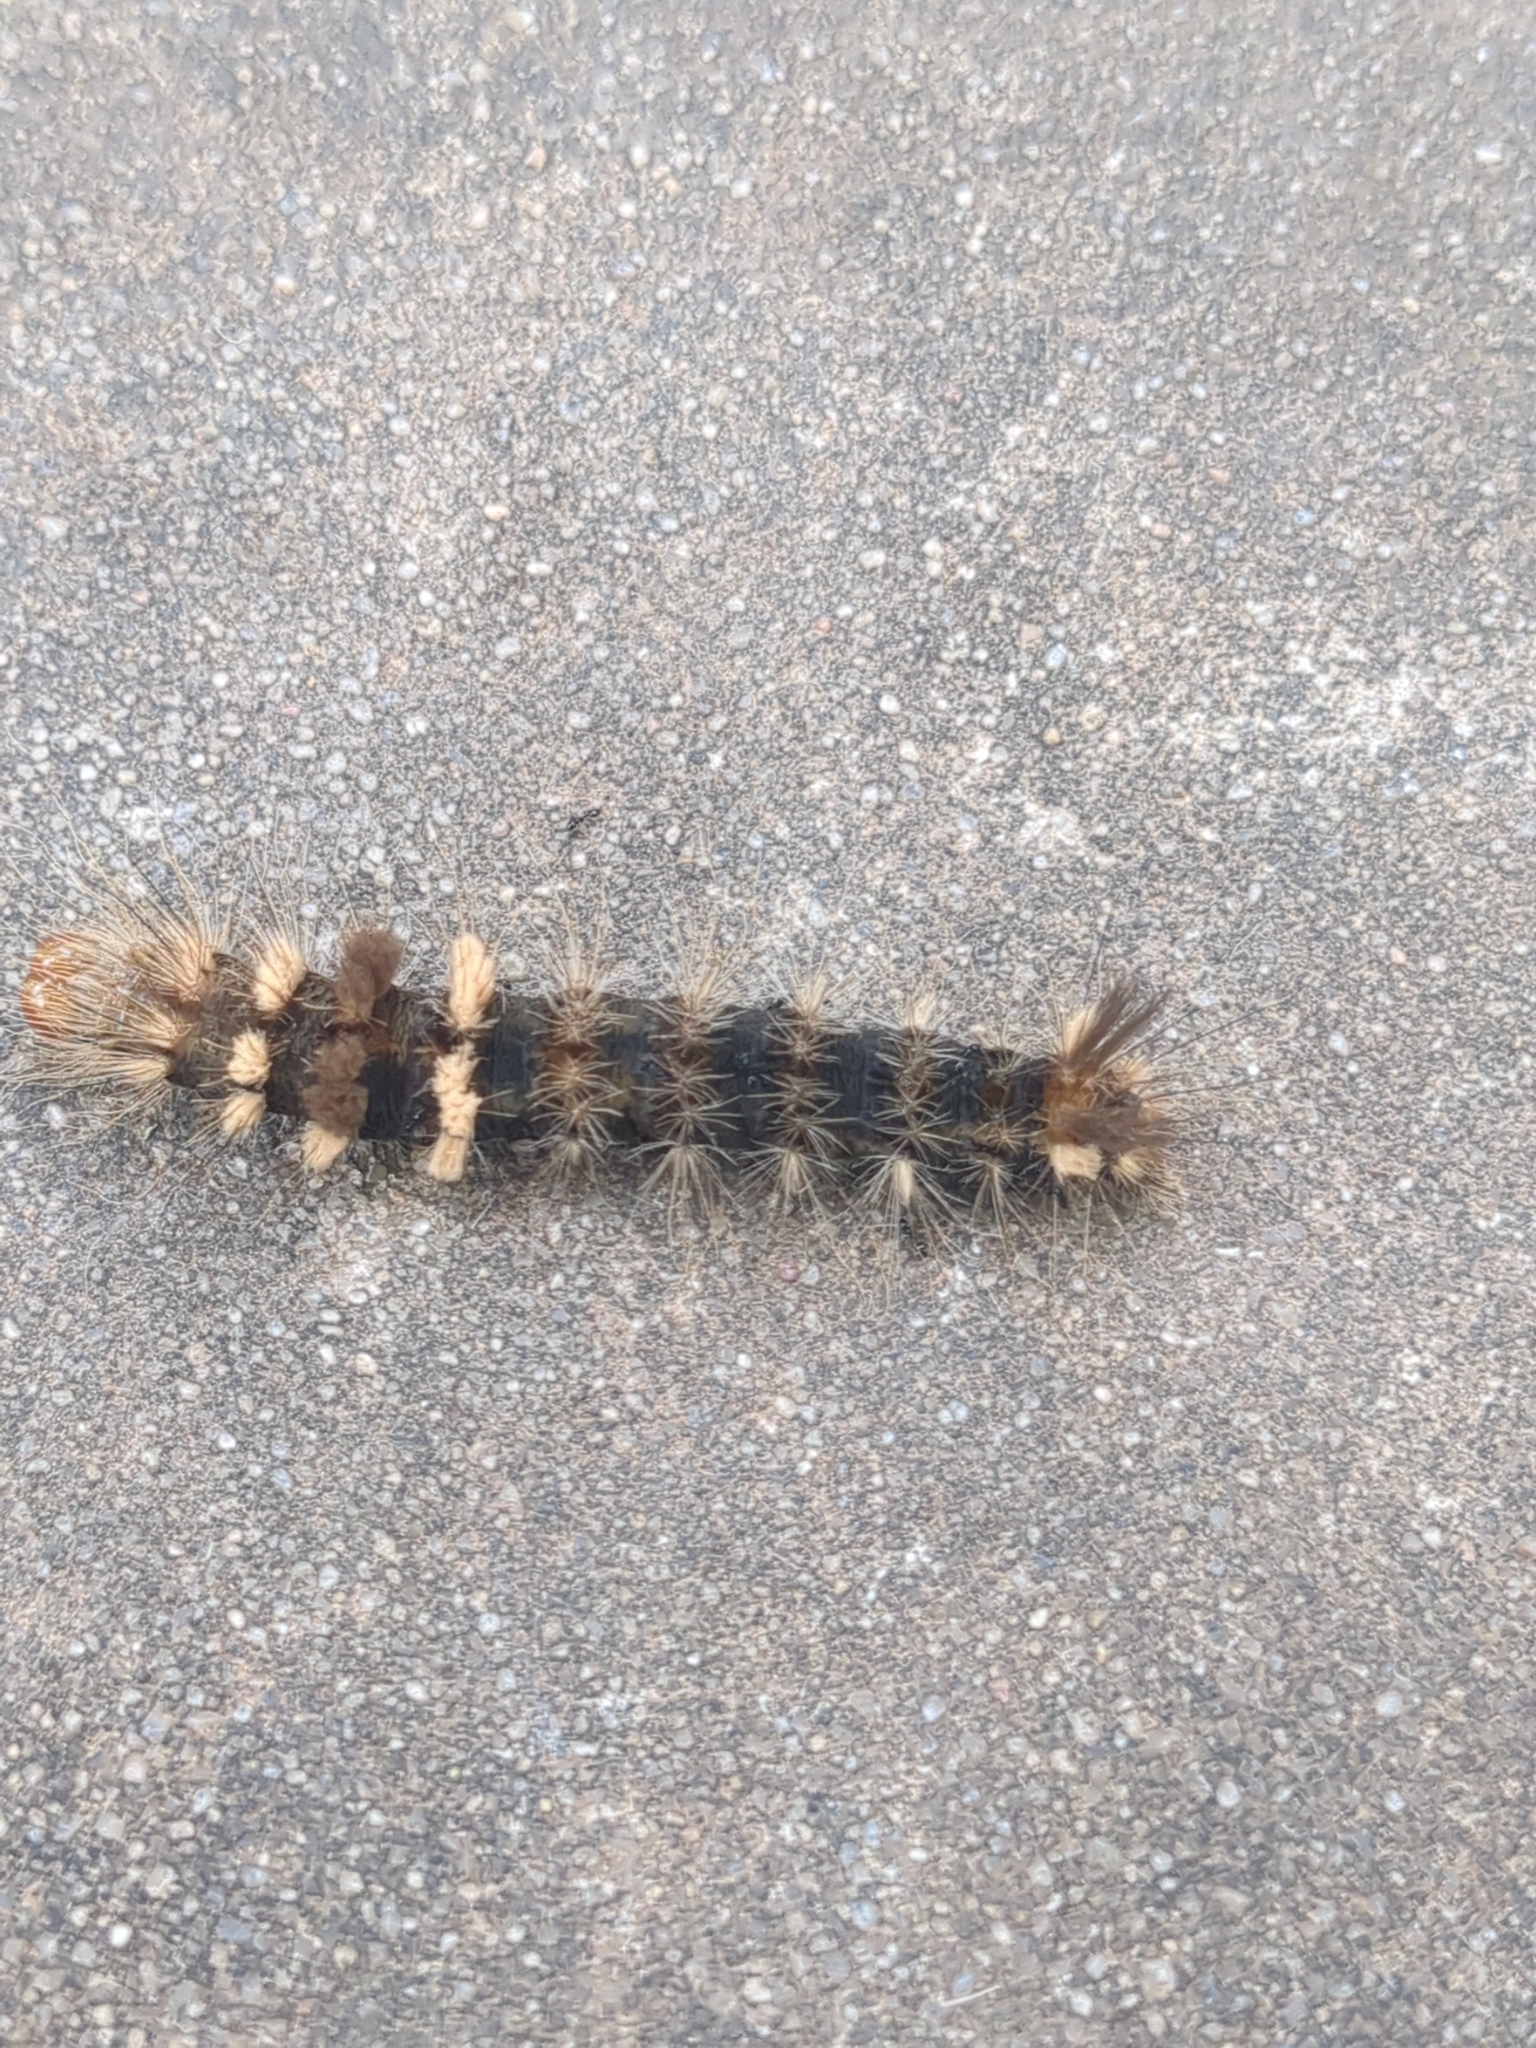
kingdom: Animalia
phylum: Arthropoda
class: Insecta
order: Lepidoptera
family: Noctuidae
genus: Acronicta
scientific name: Acronicta impleta
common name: Powdered dagger
